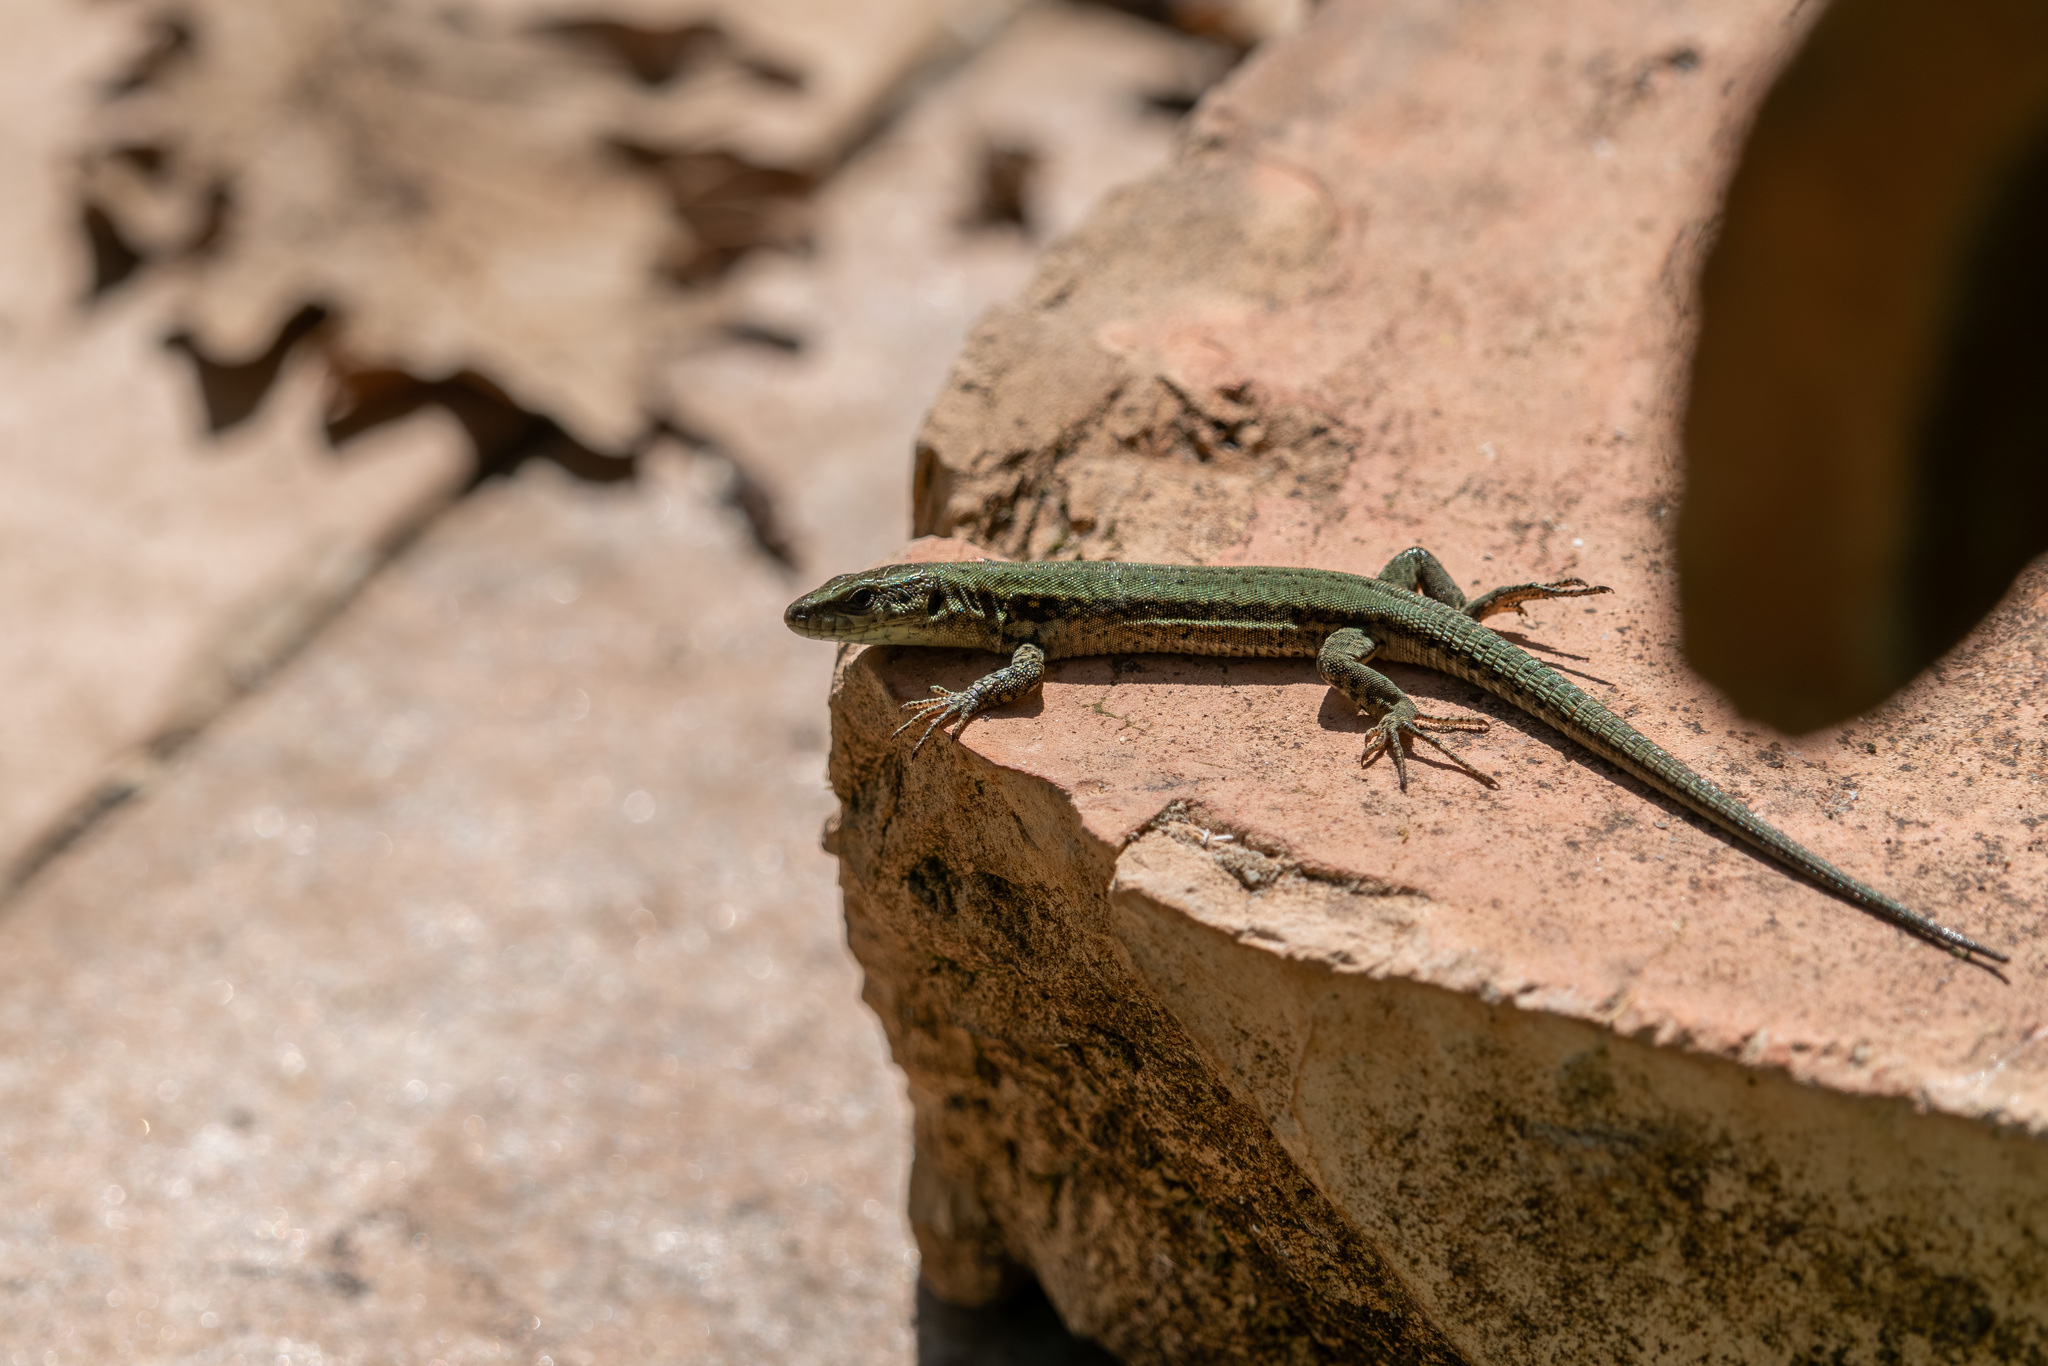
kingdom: Animalia
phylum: Chordata
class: Squamata
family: Lacertidae
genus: Podarcis
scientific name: Podarcis muralis
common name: Common wall lizard
